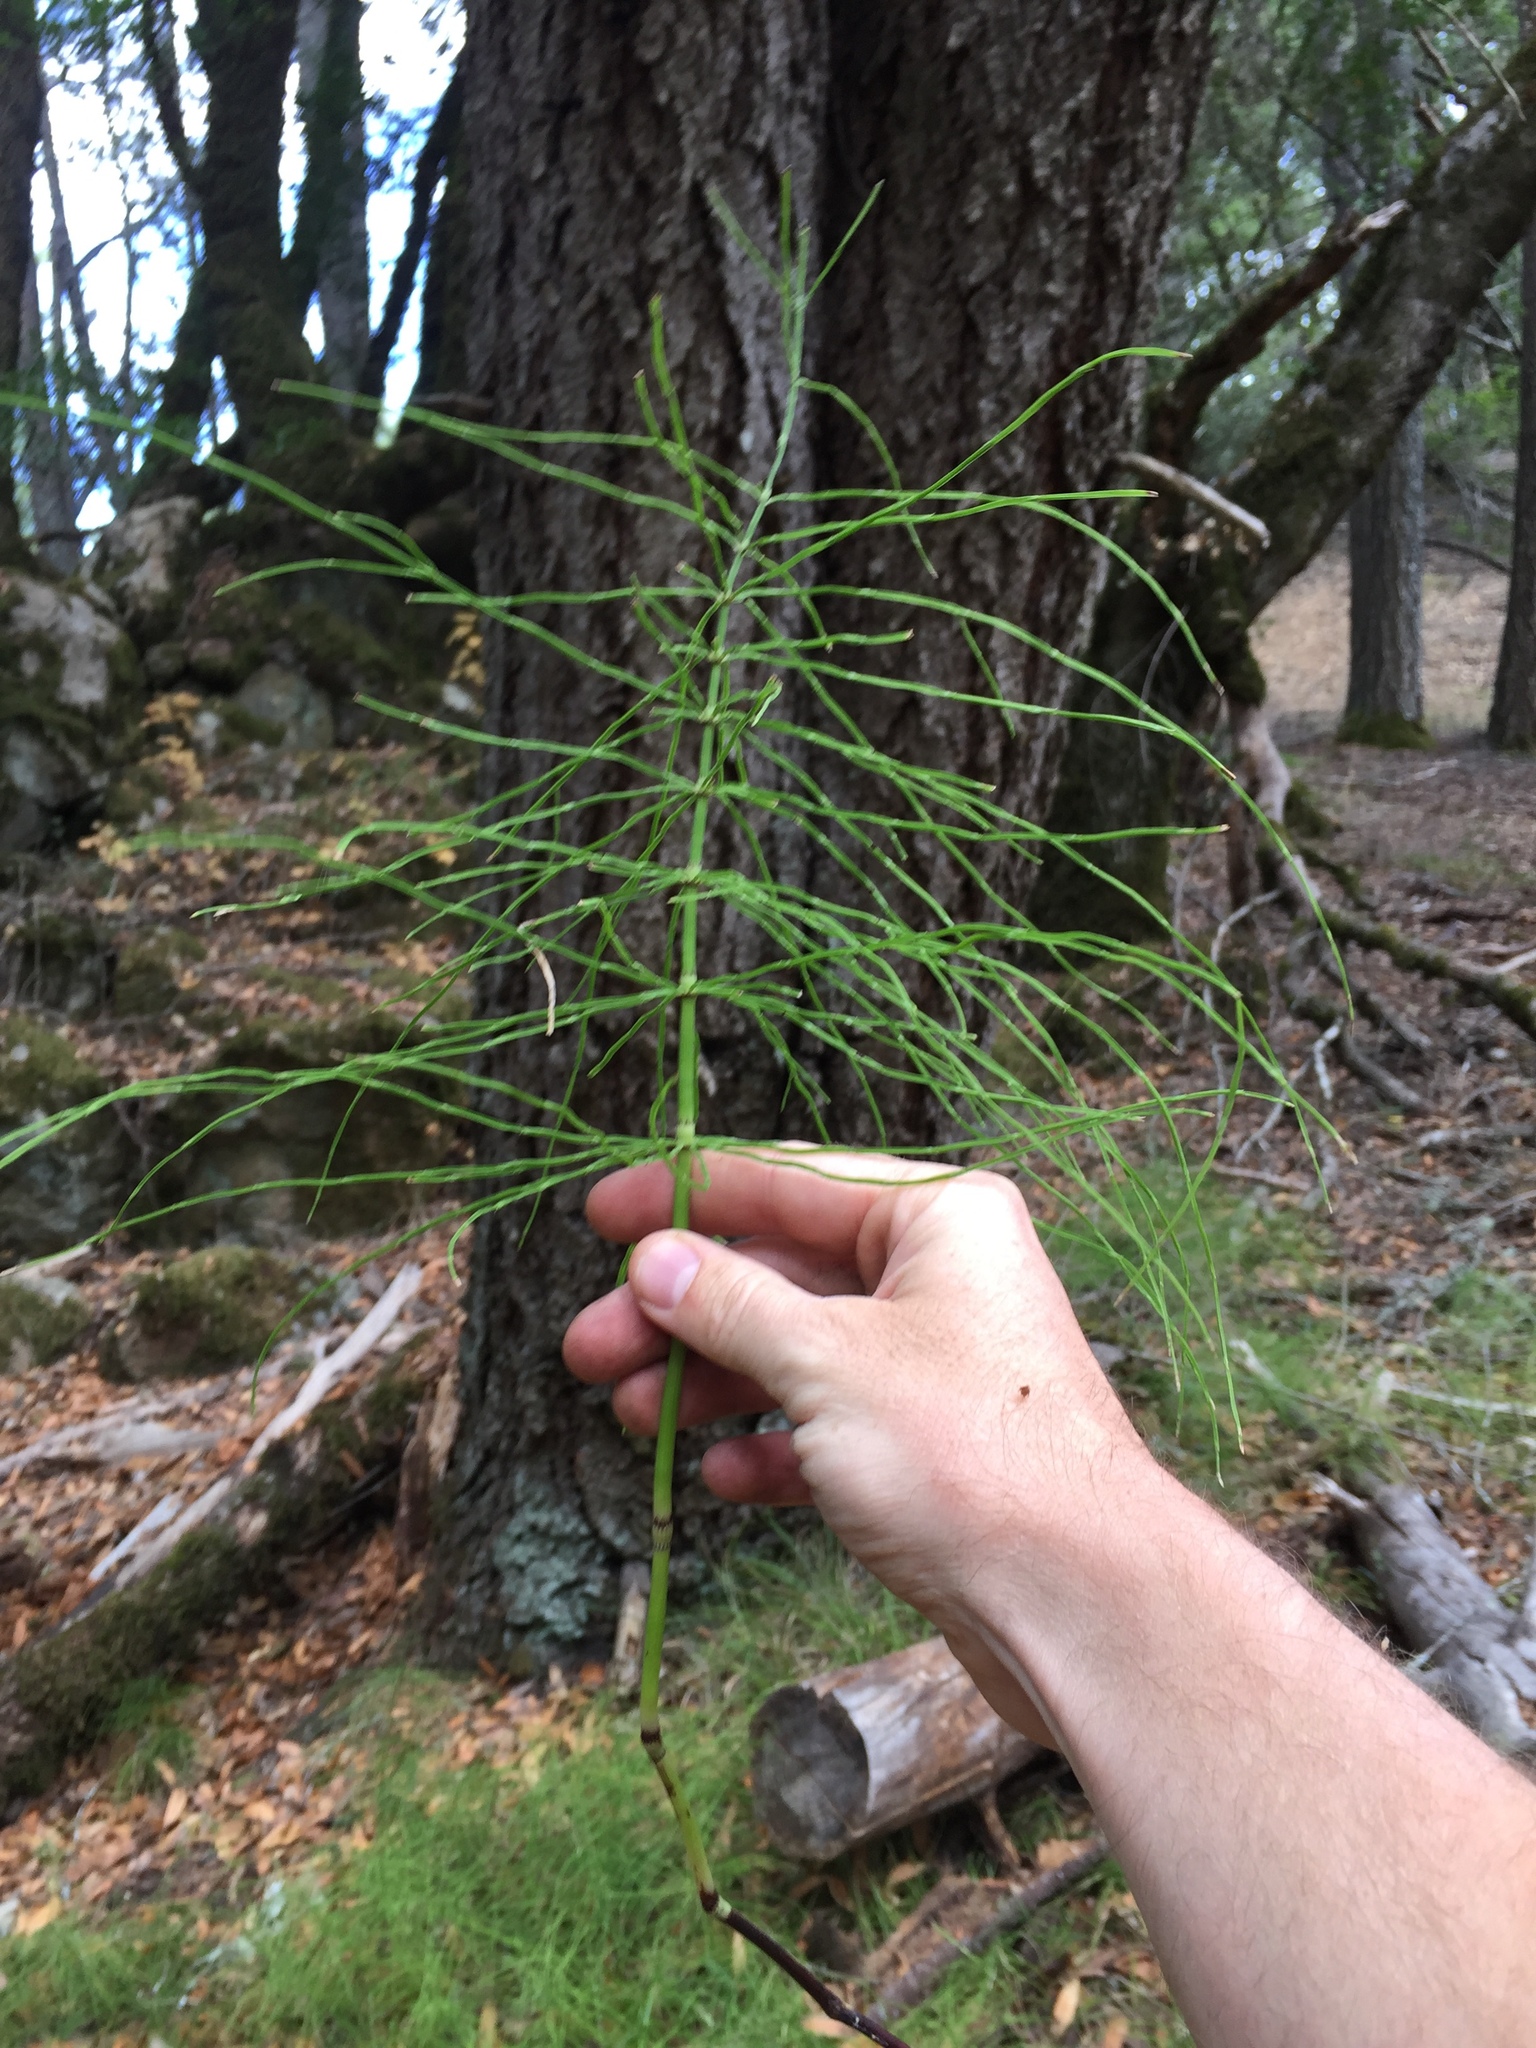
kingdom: Plantae
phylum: Tracheophyta
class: Polypodiopsida
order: Equisetales
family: Equisetaceae
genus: Equisetum
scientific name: Equisetum arvense
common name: Field horsetail
